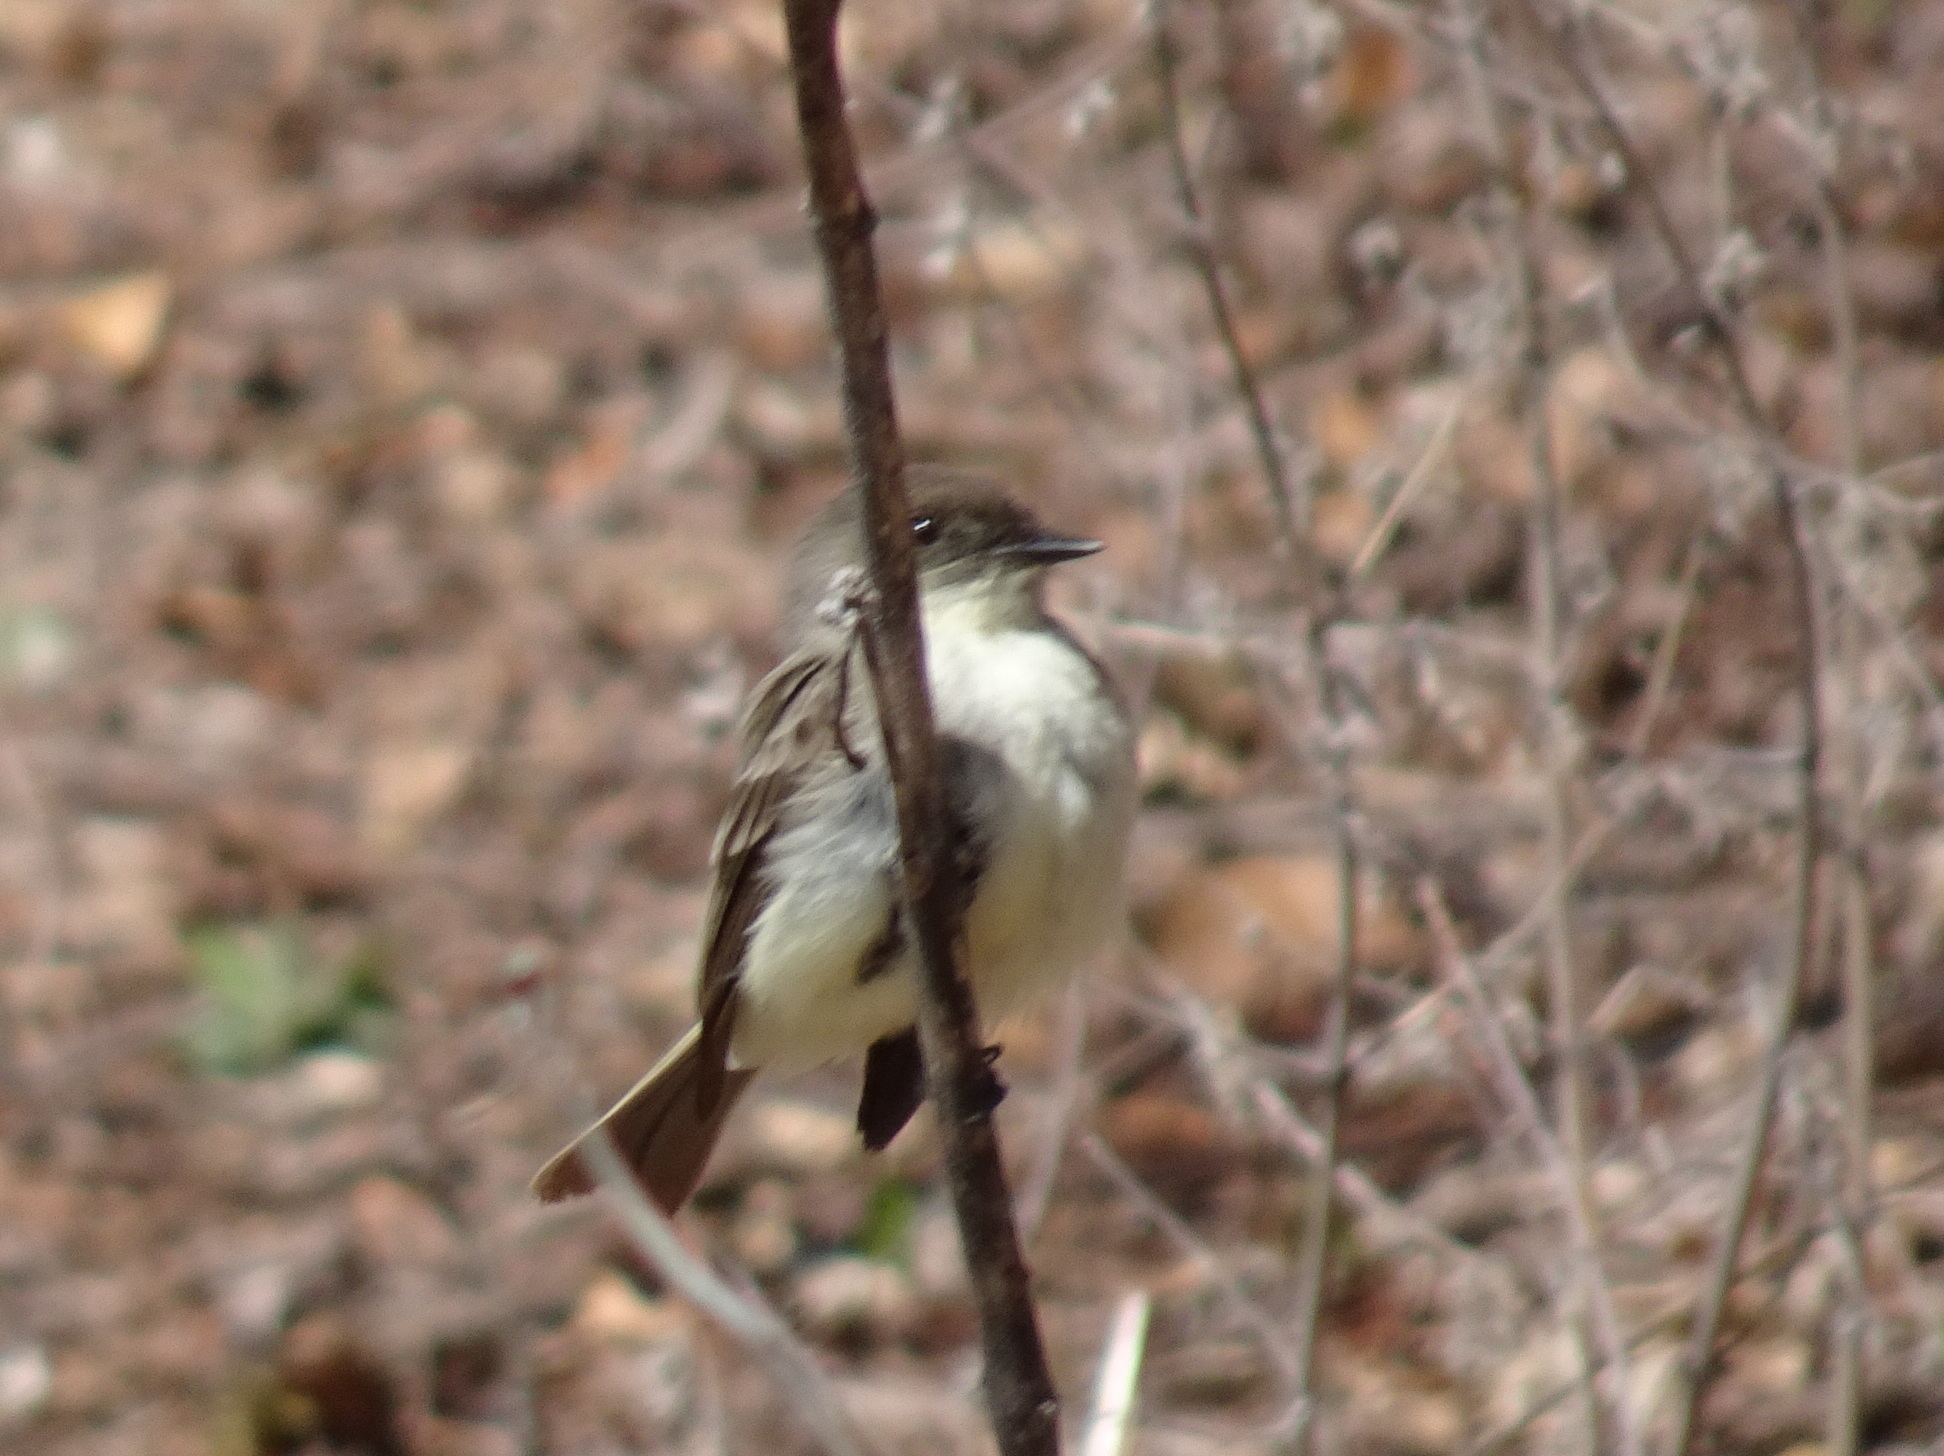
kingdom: Animalia
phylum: Chordata
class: Aves
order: Passeriformes
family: Tyrannidae
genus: Sayornis
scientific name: Sayornis phoebe
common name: Eastern phoebe
